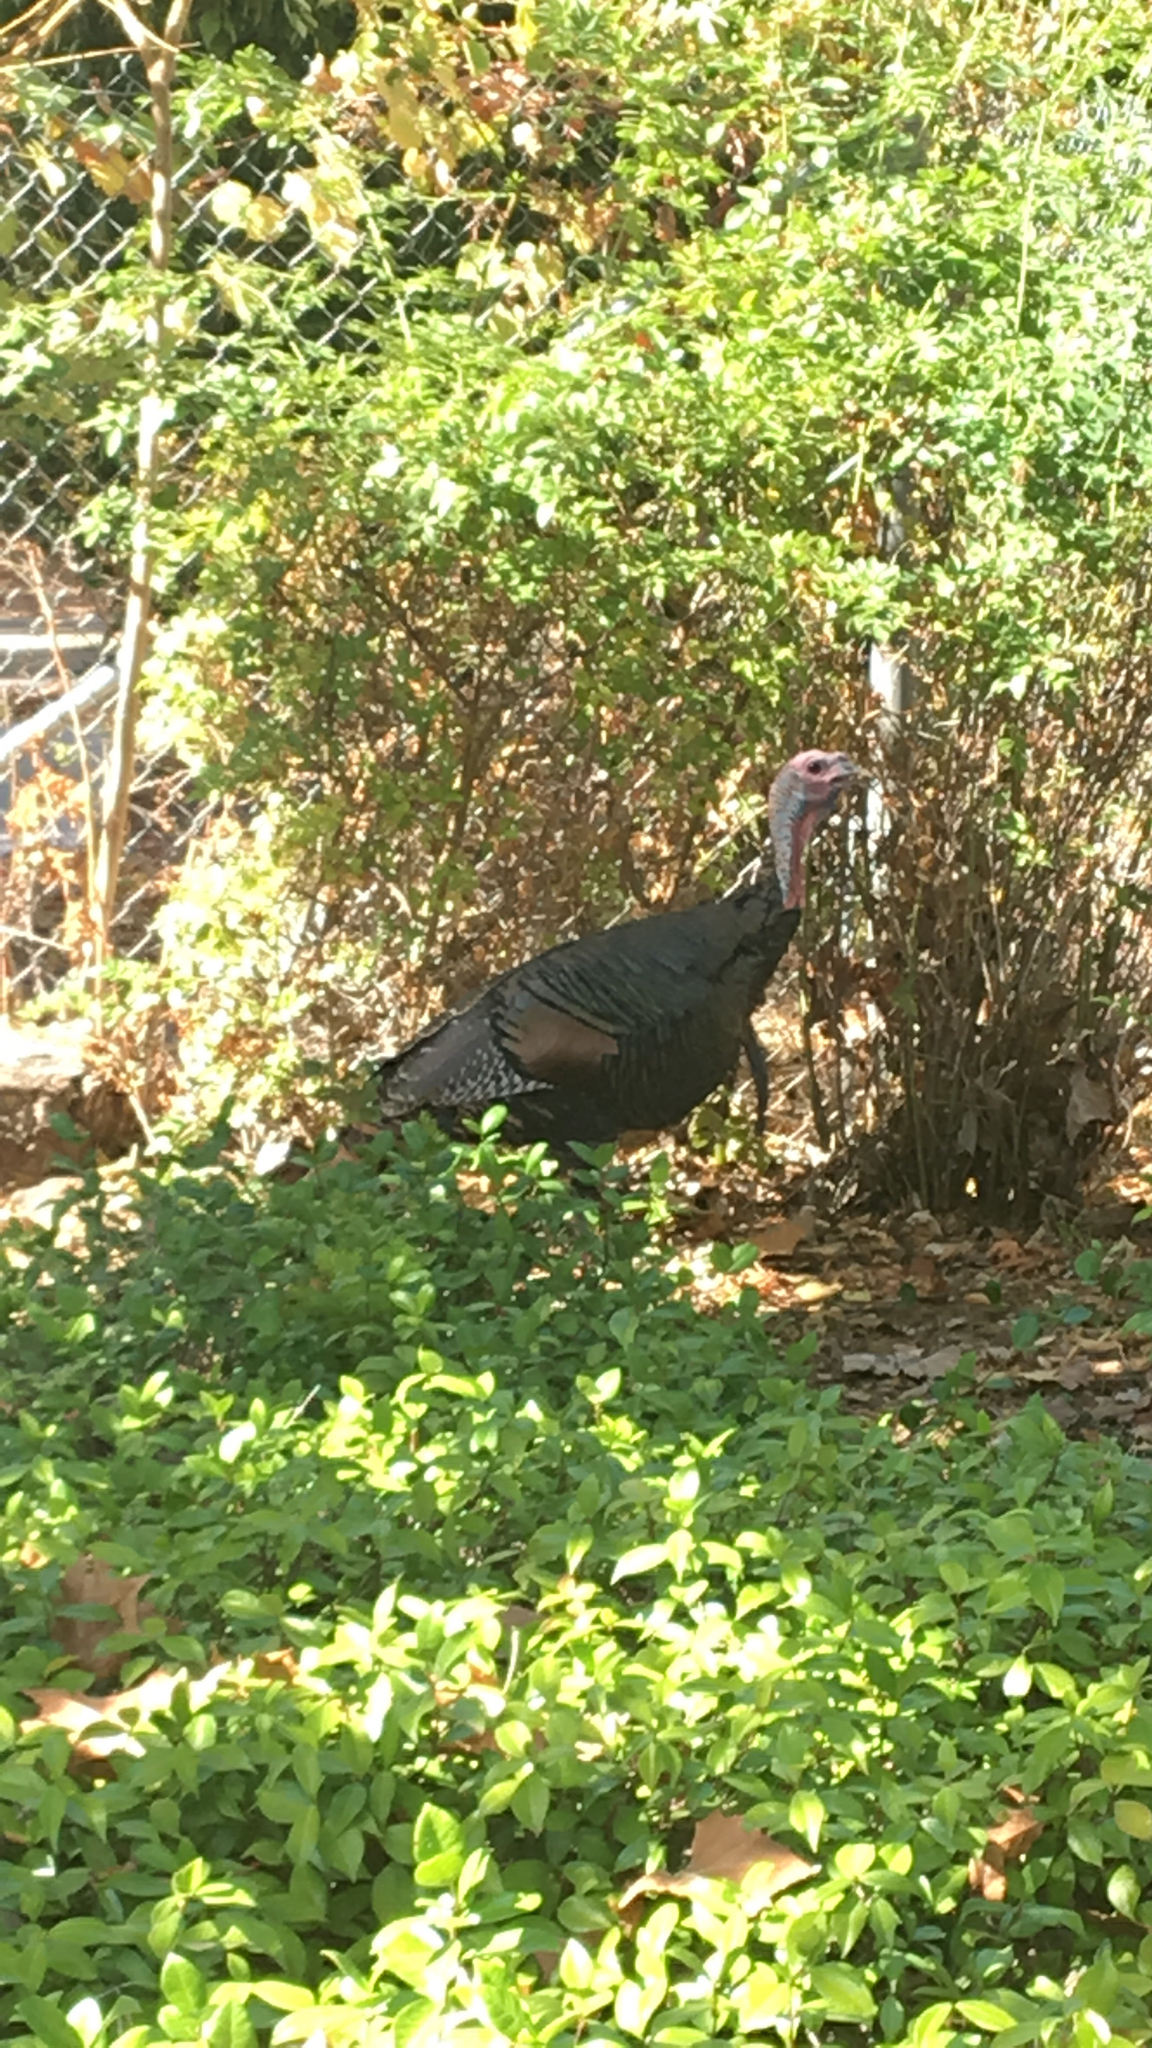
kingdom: Animalia
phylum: Chordata
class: Aves
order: Galliformes
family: Phasianidae
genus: Meleagris
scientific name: Meleagris gallopavo
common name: Wild turkey
